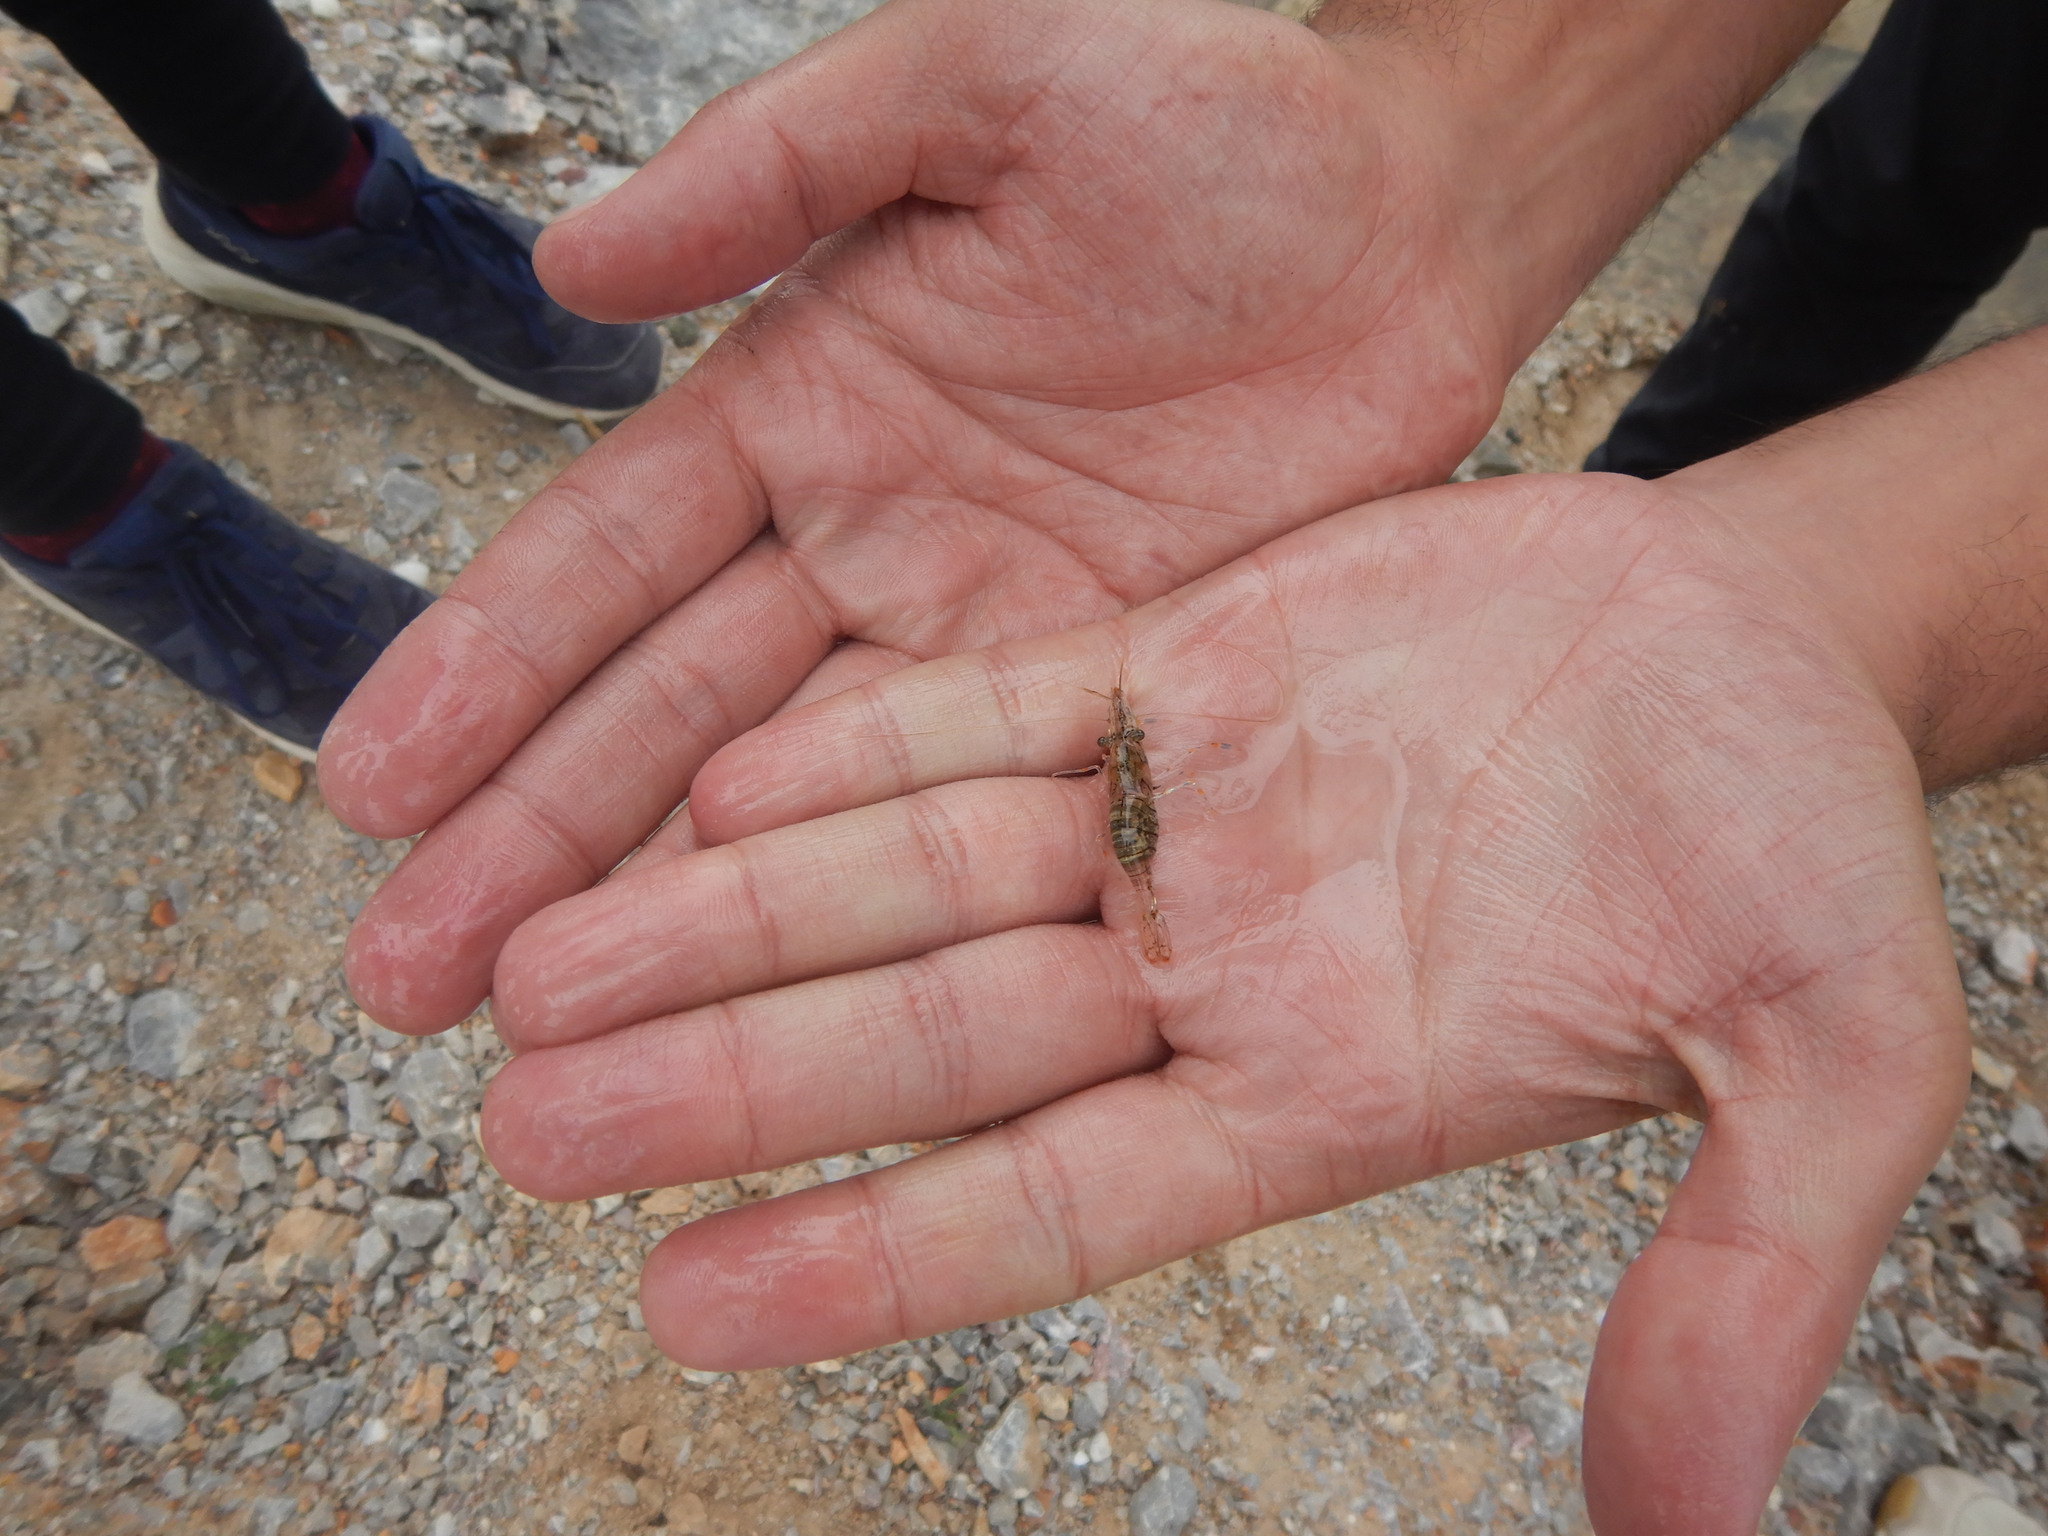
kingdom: Animalia
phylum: Arthropoda
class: Malacostraca
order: Decapoda
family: Palaemonidae
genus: Palaemon
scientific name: Palaemon elegans
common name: Grass prawm
